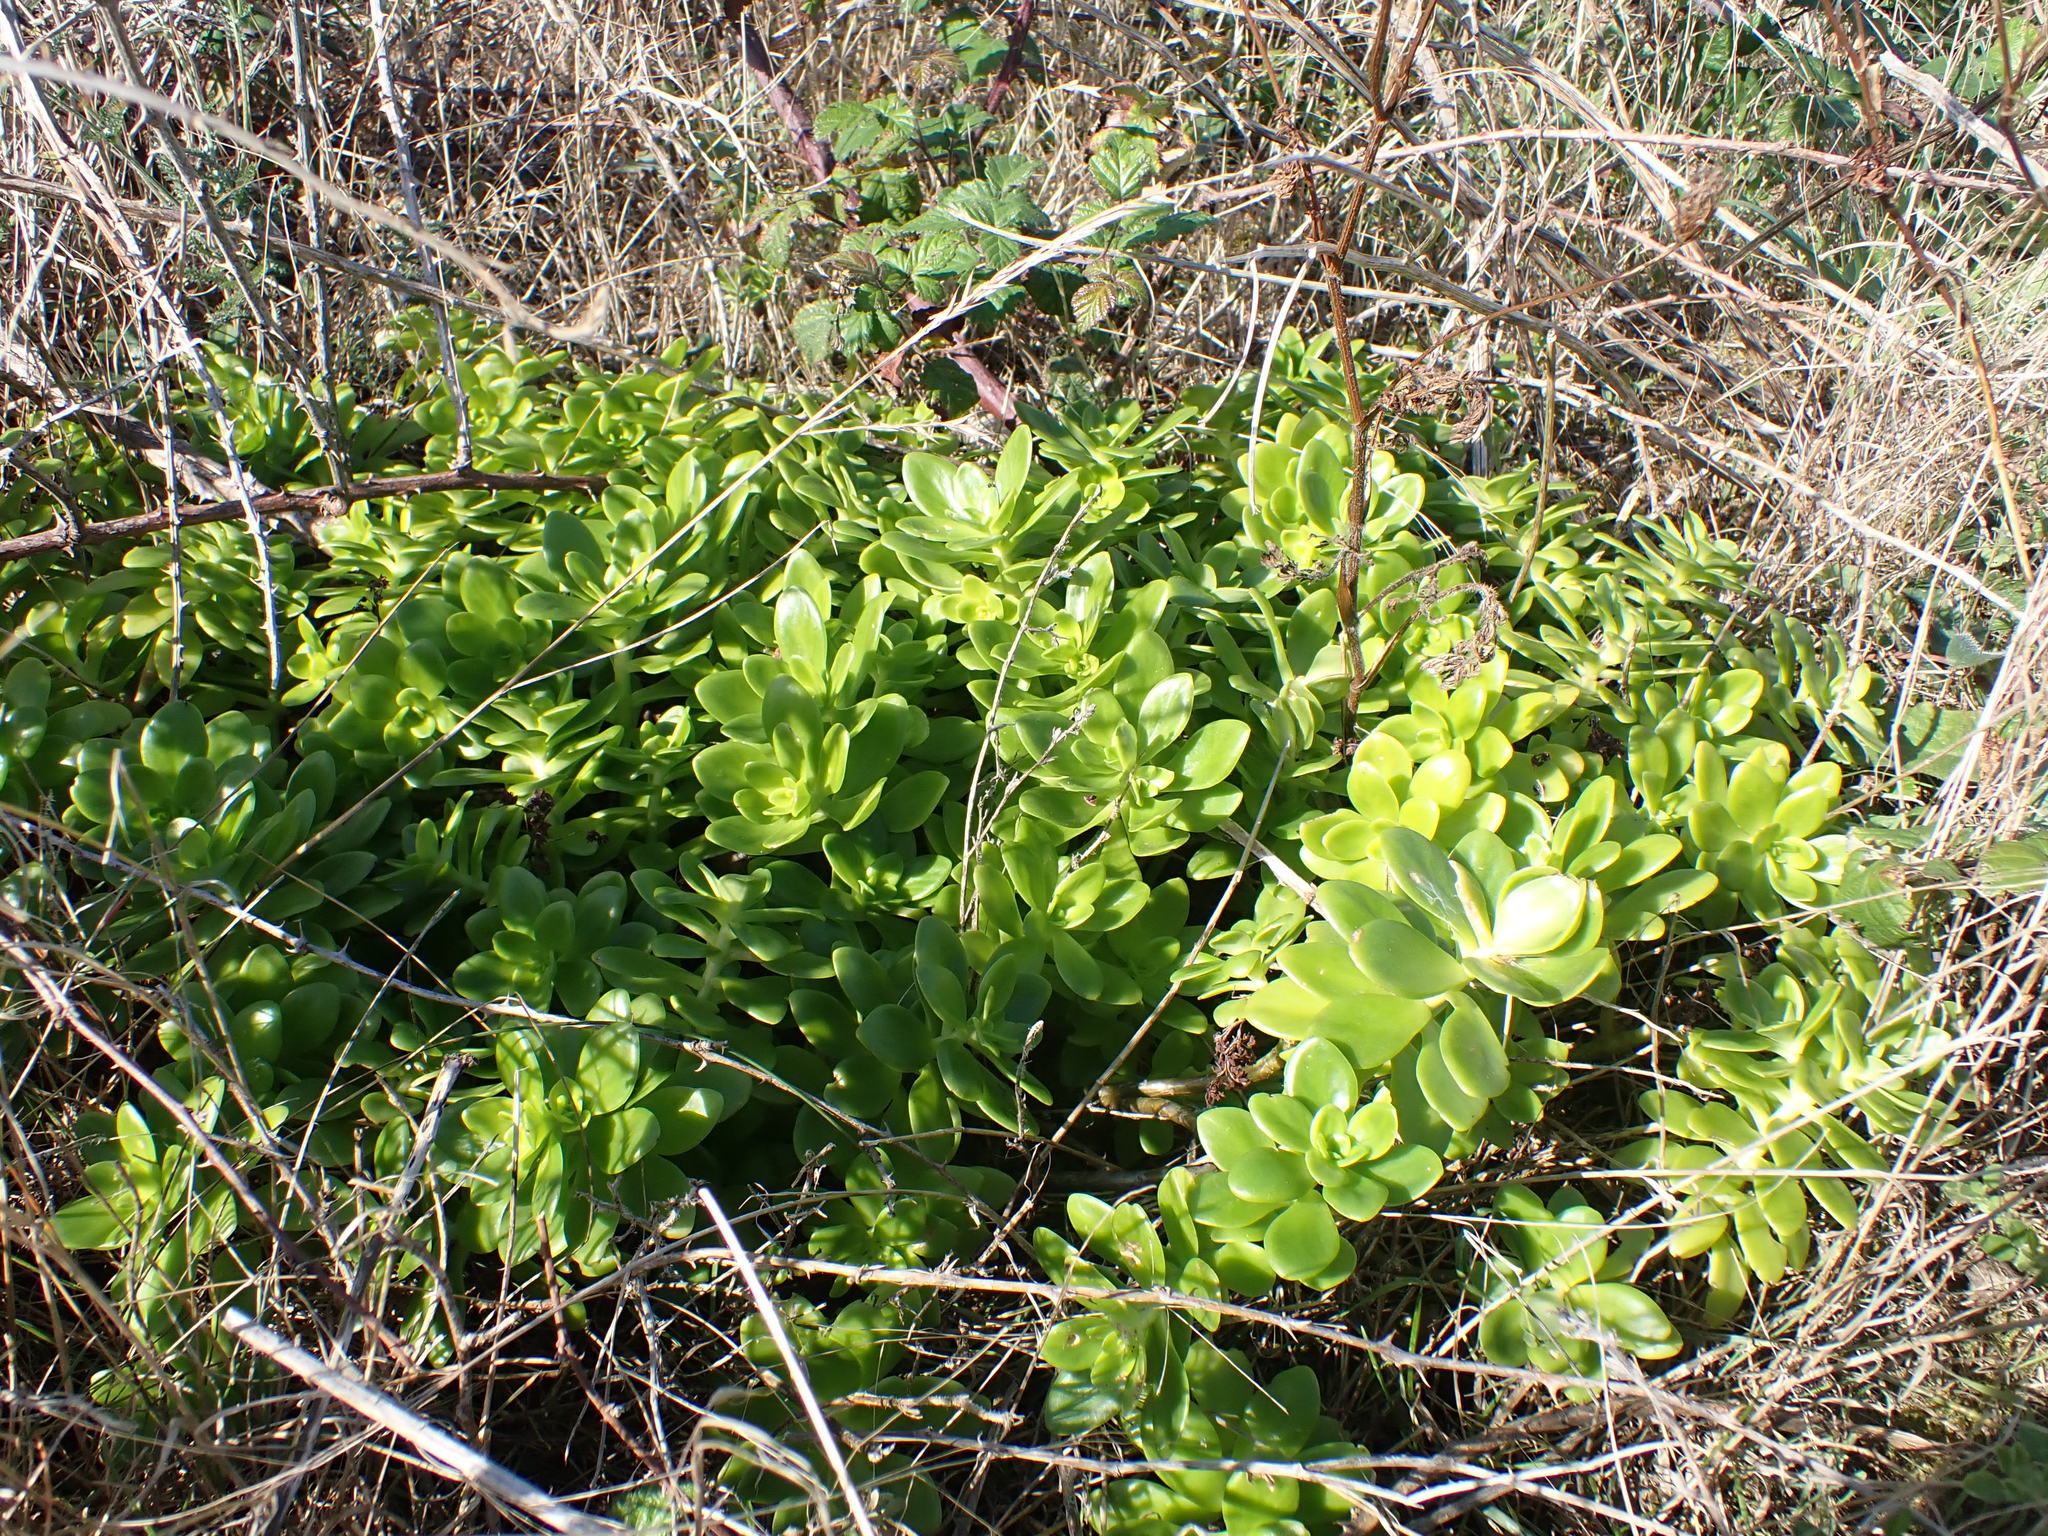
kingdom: Plantae
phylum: Tracheophyta
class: Magnoliopsida
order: Saxifragales
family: Crassulaceae
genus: Sedum
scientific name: Sedum confusum
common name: Lesser mexican-stonecrop
